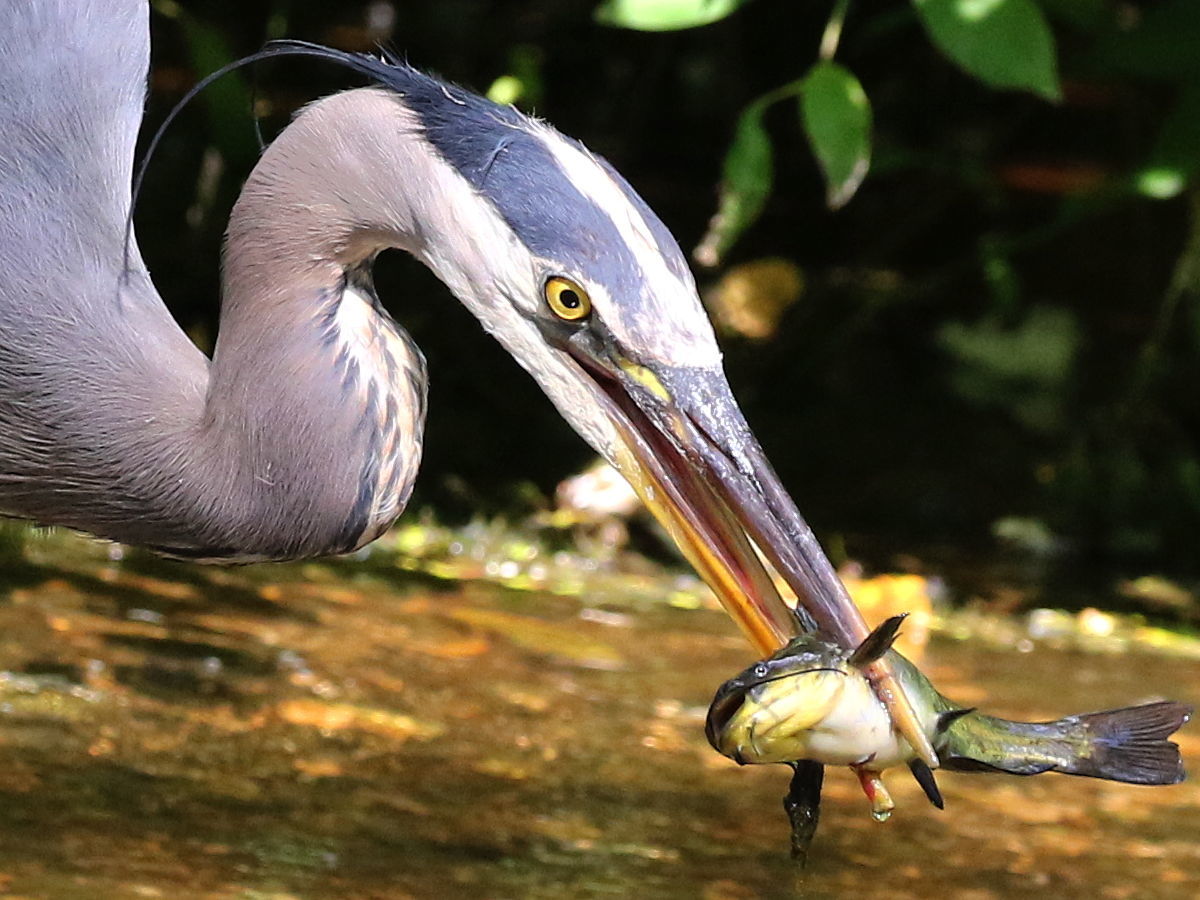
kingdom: Animalia
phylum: Chordata
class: Aves
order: Pelecaniformes
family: Ardeidae
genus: Ardea
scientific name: Ardea herodias
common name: Great blue heron
